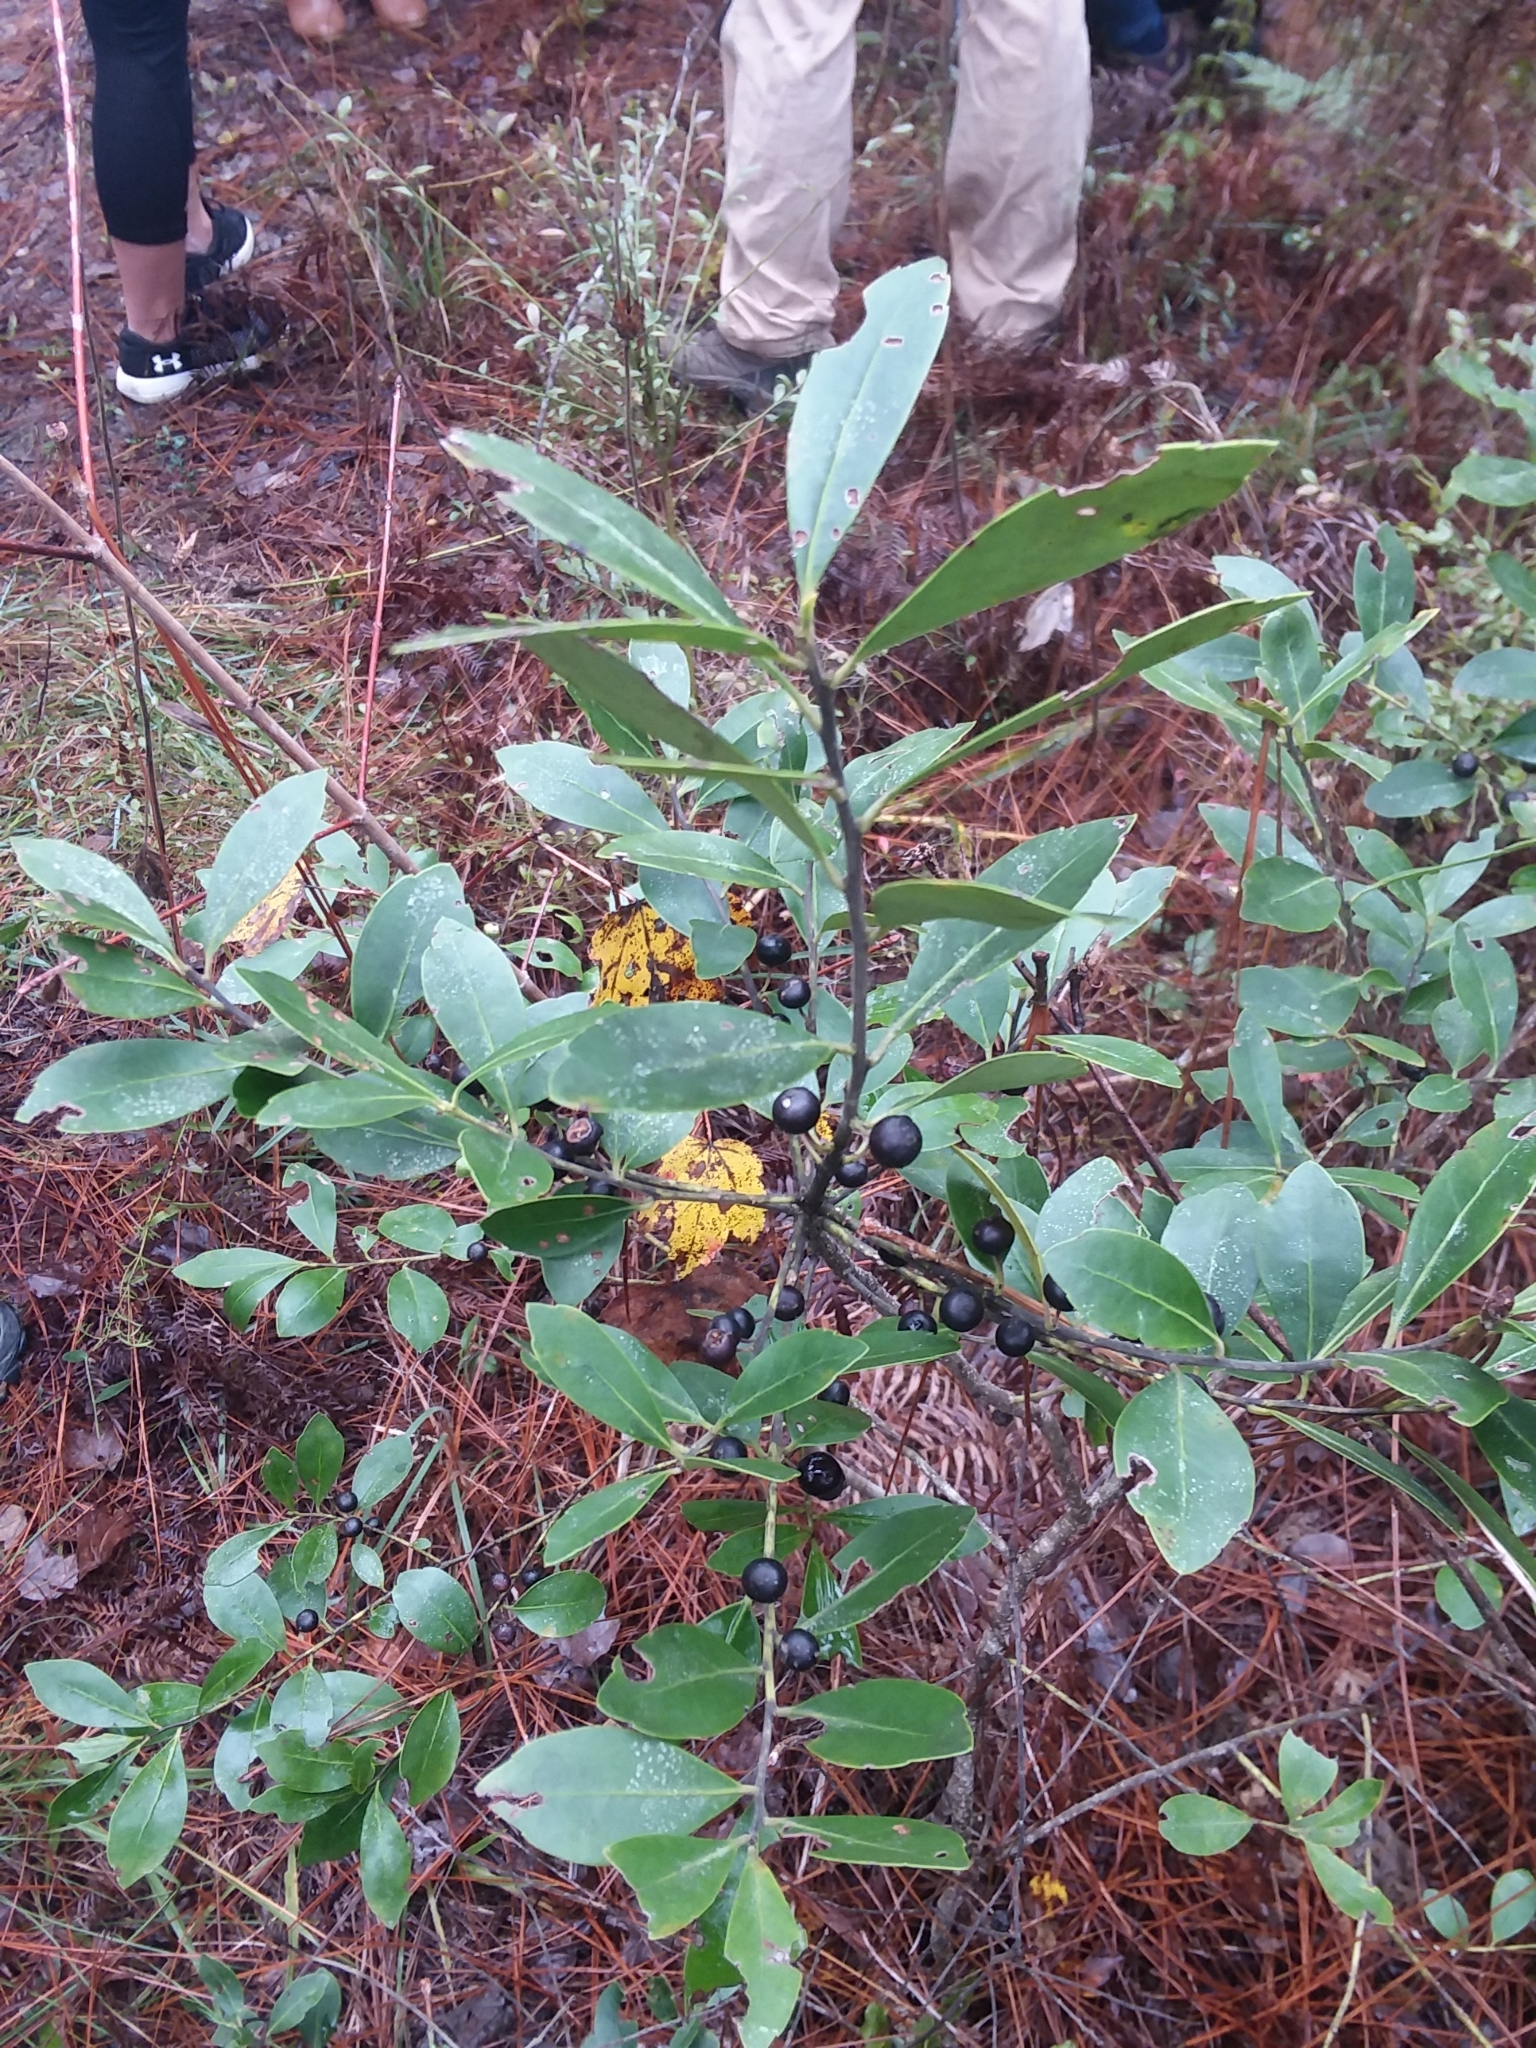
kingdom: Plantae
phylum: Tracheophyta
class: Magnoliopsida
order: Aquifoliales
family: Aquifoliaceae
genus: Ilex
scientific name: Ilex glabra
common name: Bitter gallberry
